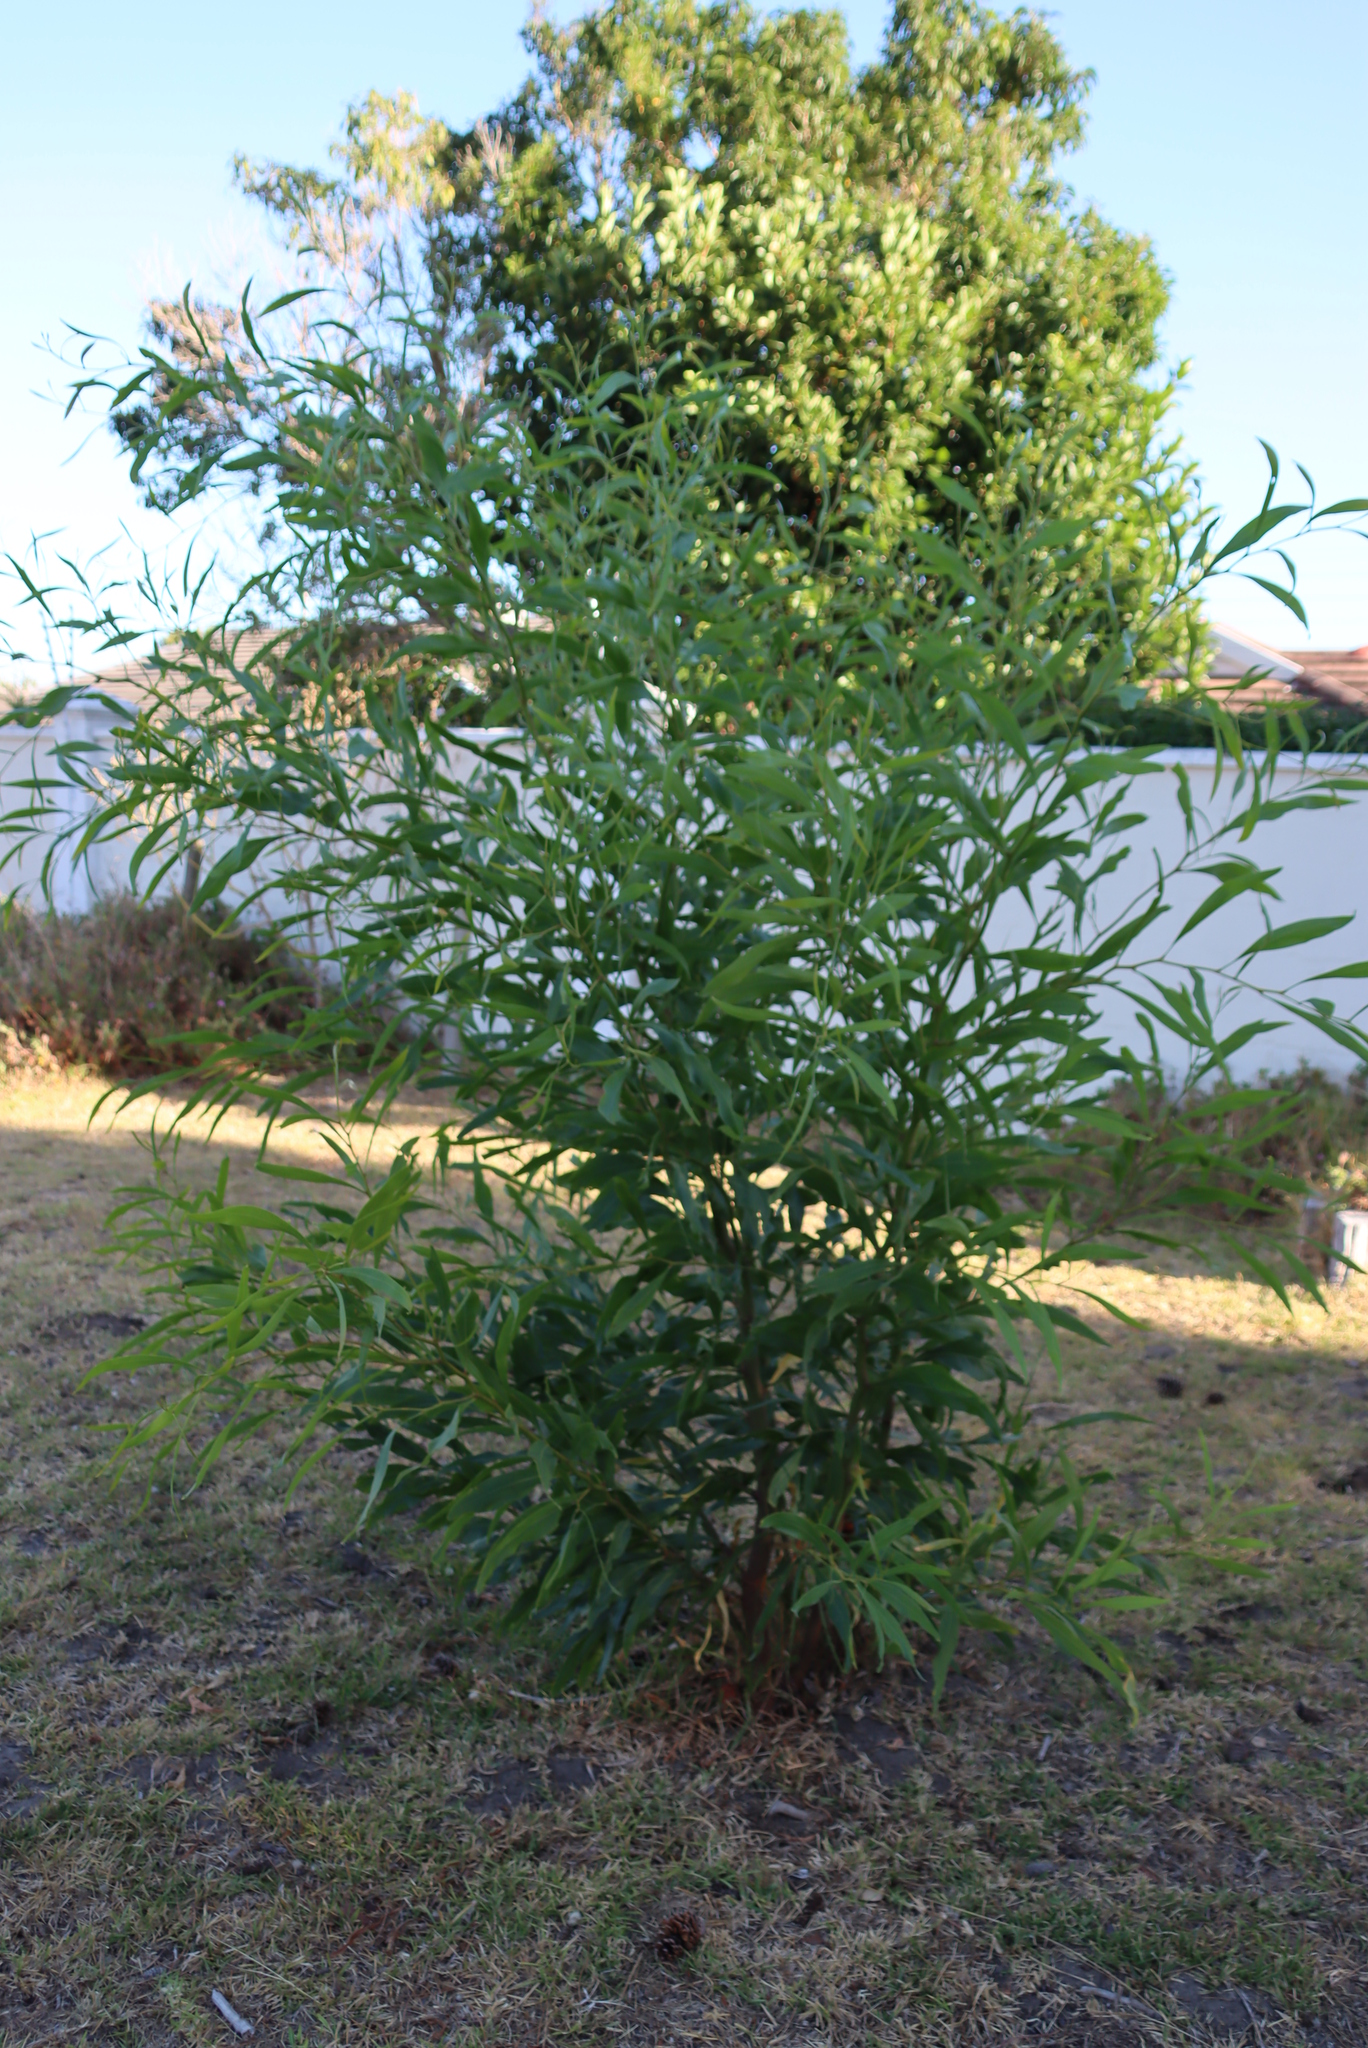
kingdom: Plantae
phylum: Tracheophyta
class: Magnoliopsida
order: Fabales
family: Fabaceae
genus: Acacia
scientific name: Acacia saligna
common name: Orange wattle
